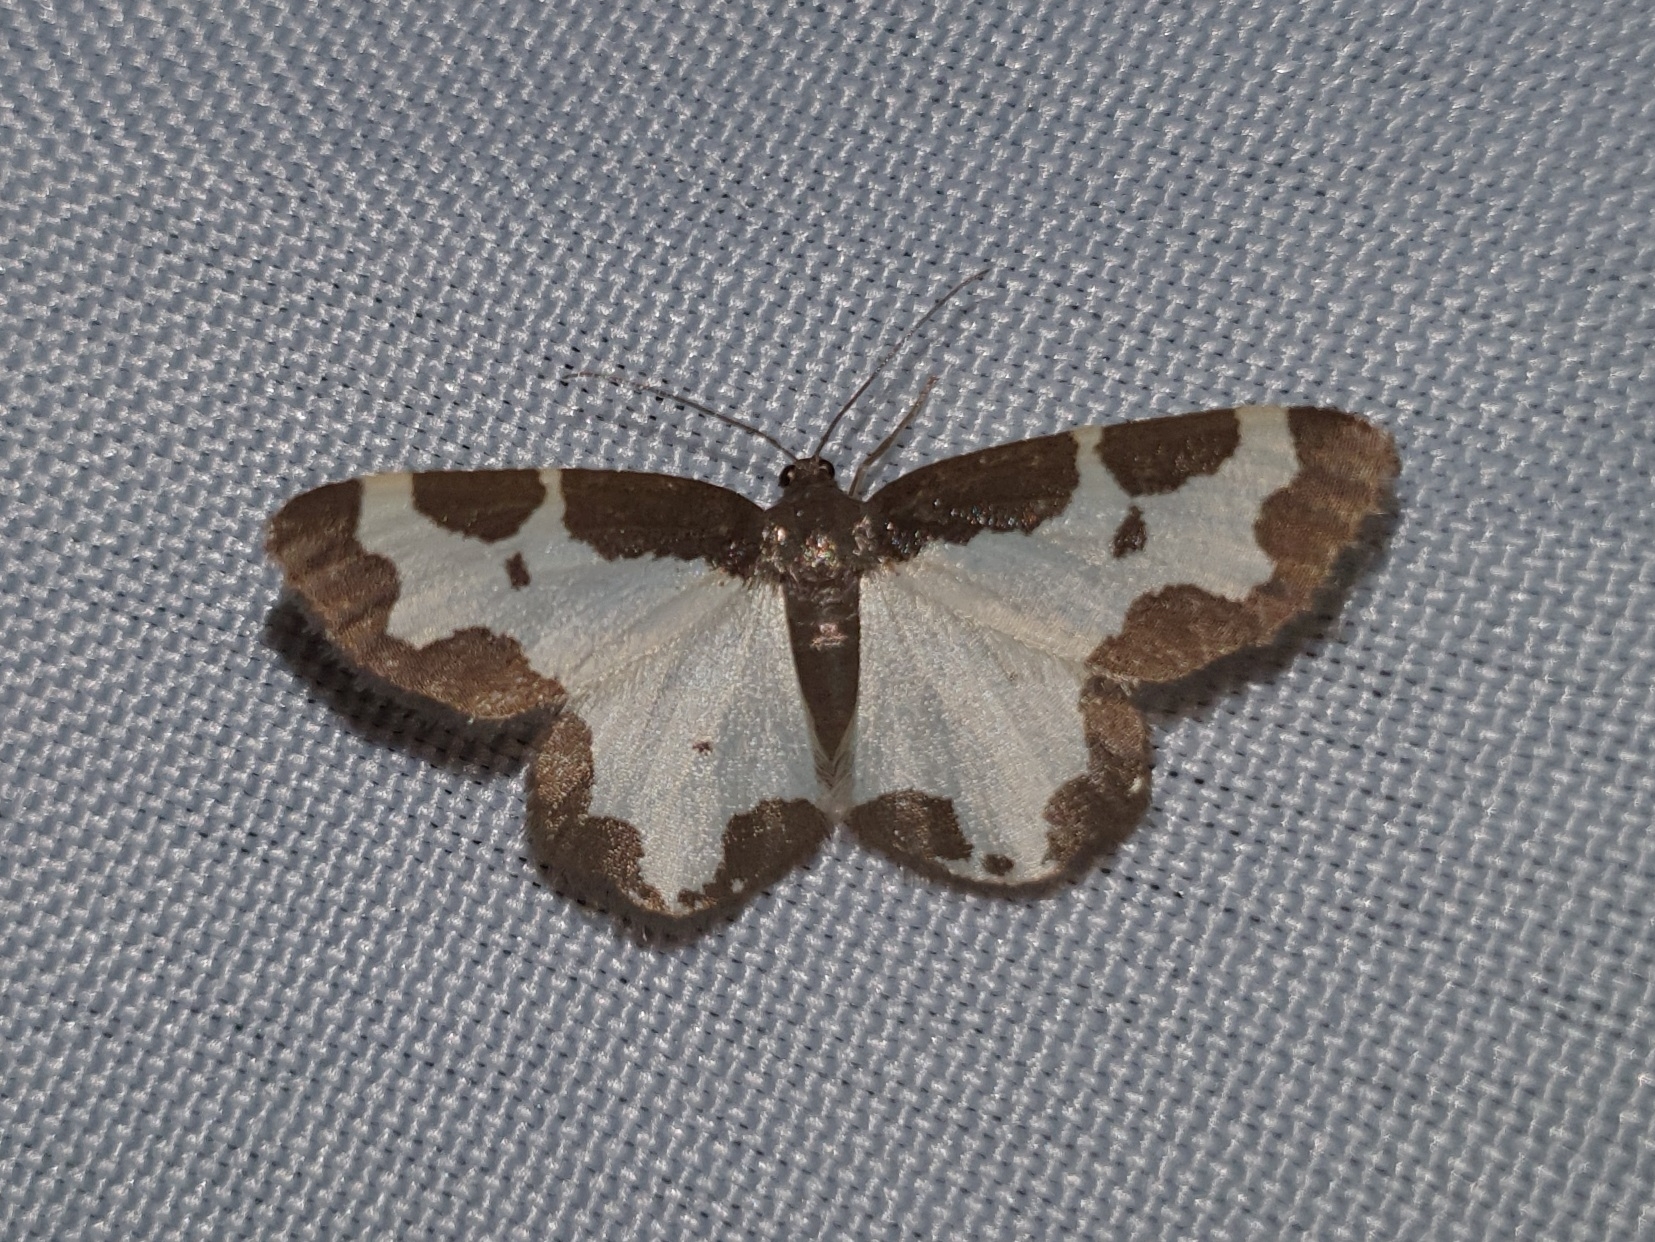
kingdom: Animalia
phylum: Arthropoda
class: Insecta
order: Lepidoptera
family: Geometridae
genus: Lomaspilis
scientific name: Lomaspilis marginata
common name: Clouded border
